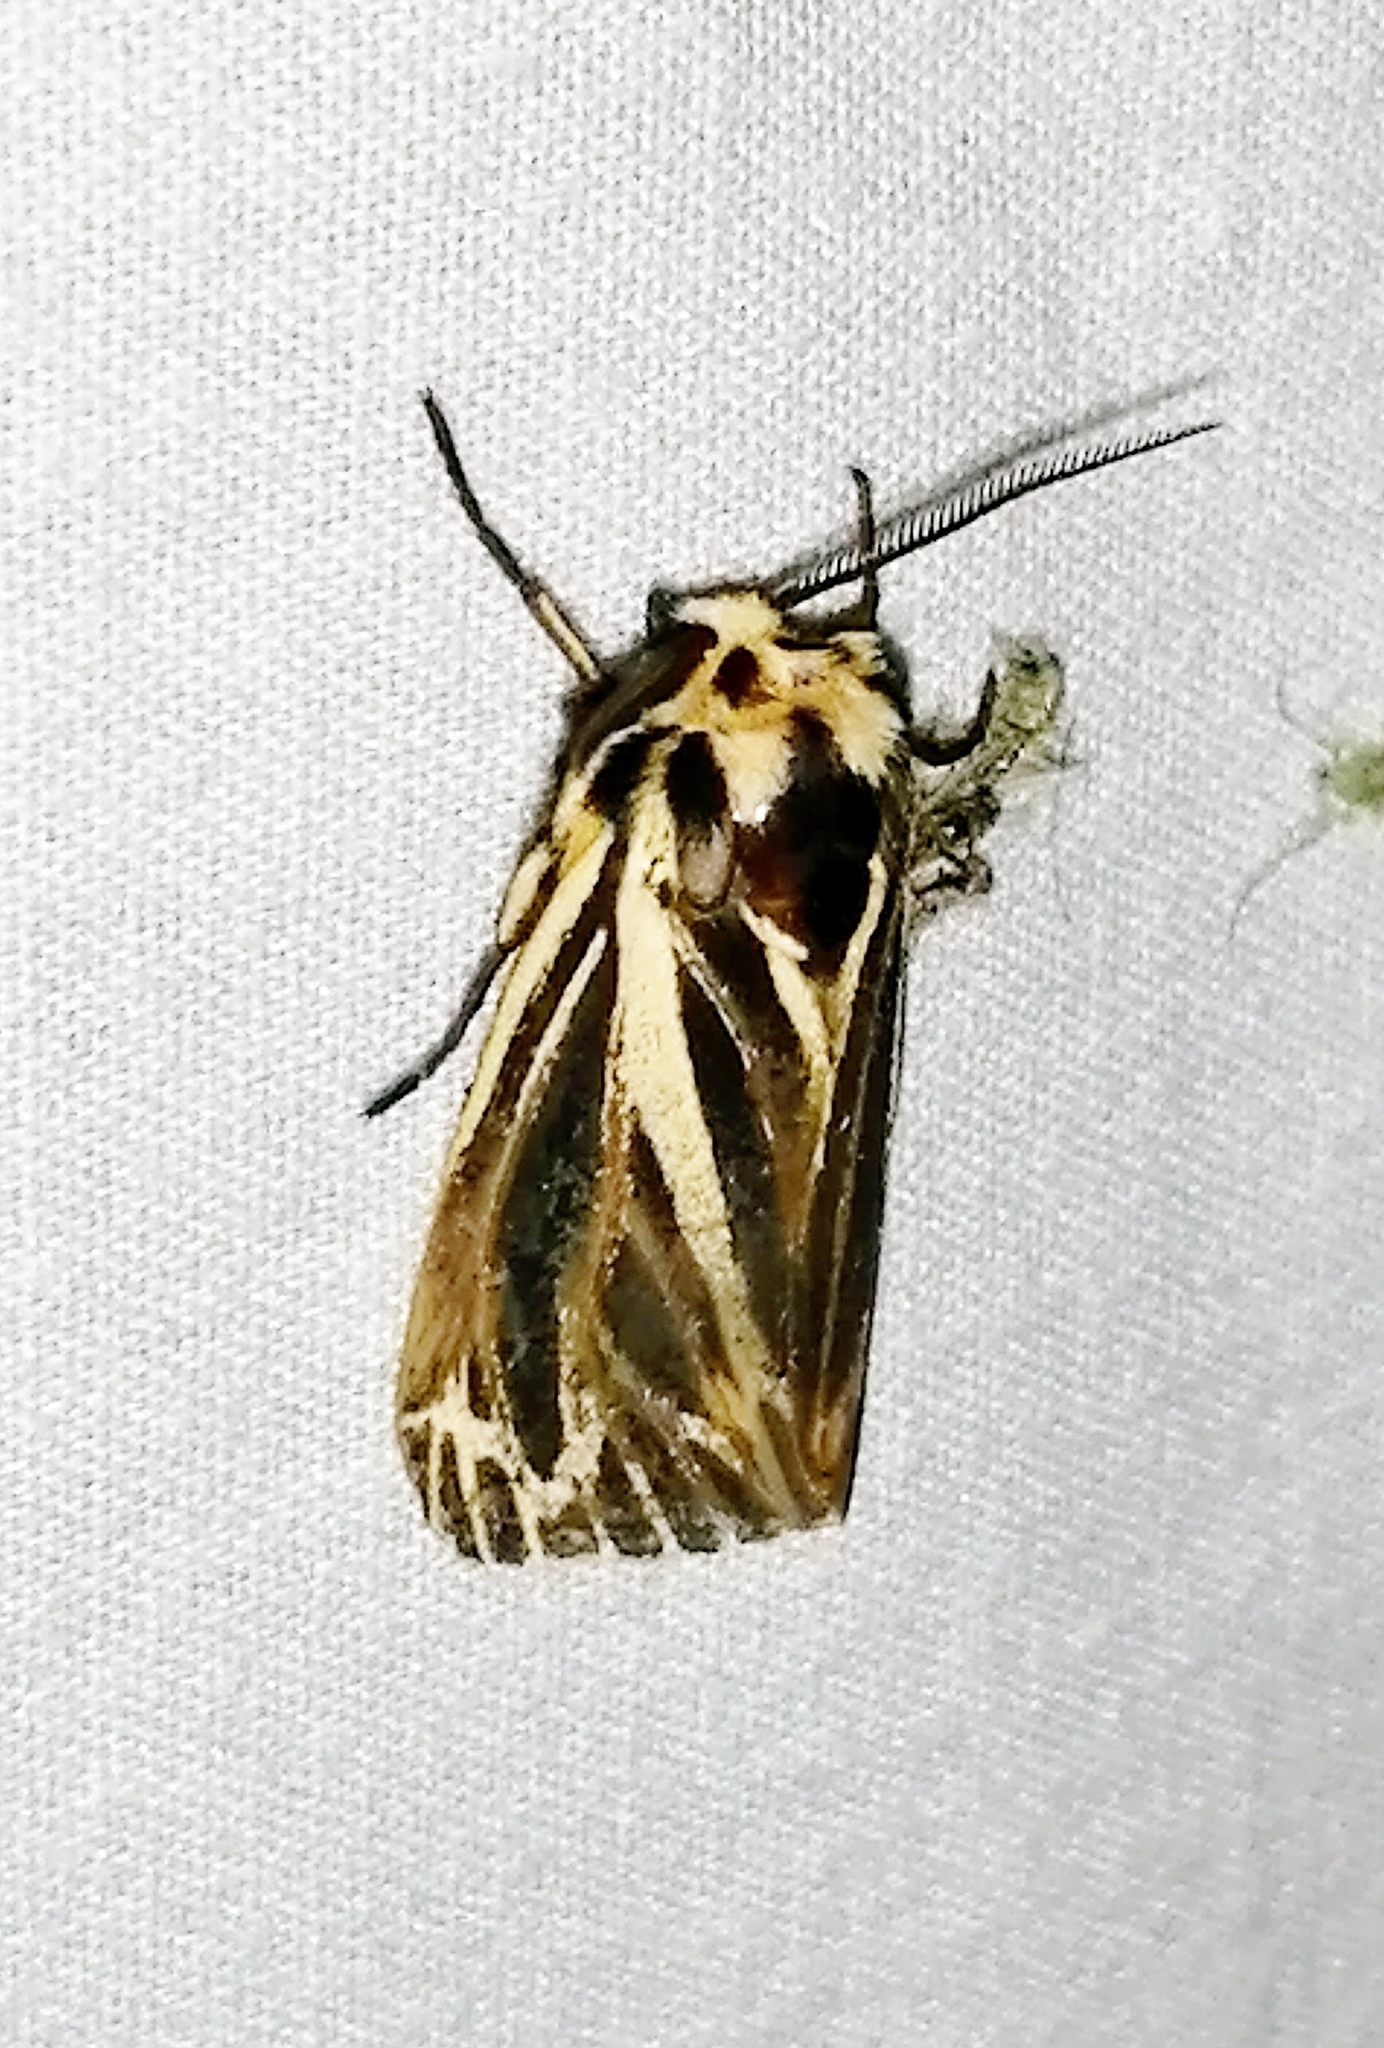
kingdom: Animalia
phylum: Arthropoda
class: Insecta
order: Lepidoptera
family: Erebidae
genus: Grammia
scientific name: Grammia virguncula
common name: Little tiger moth
